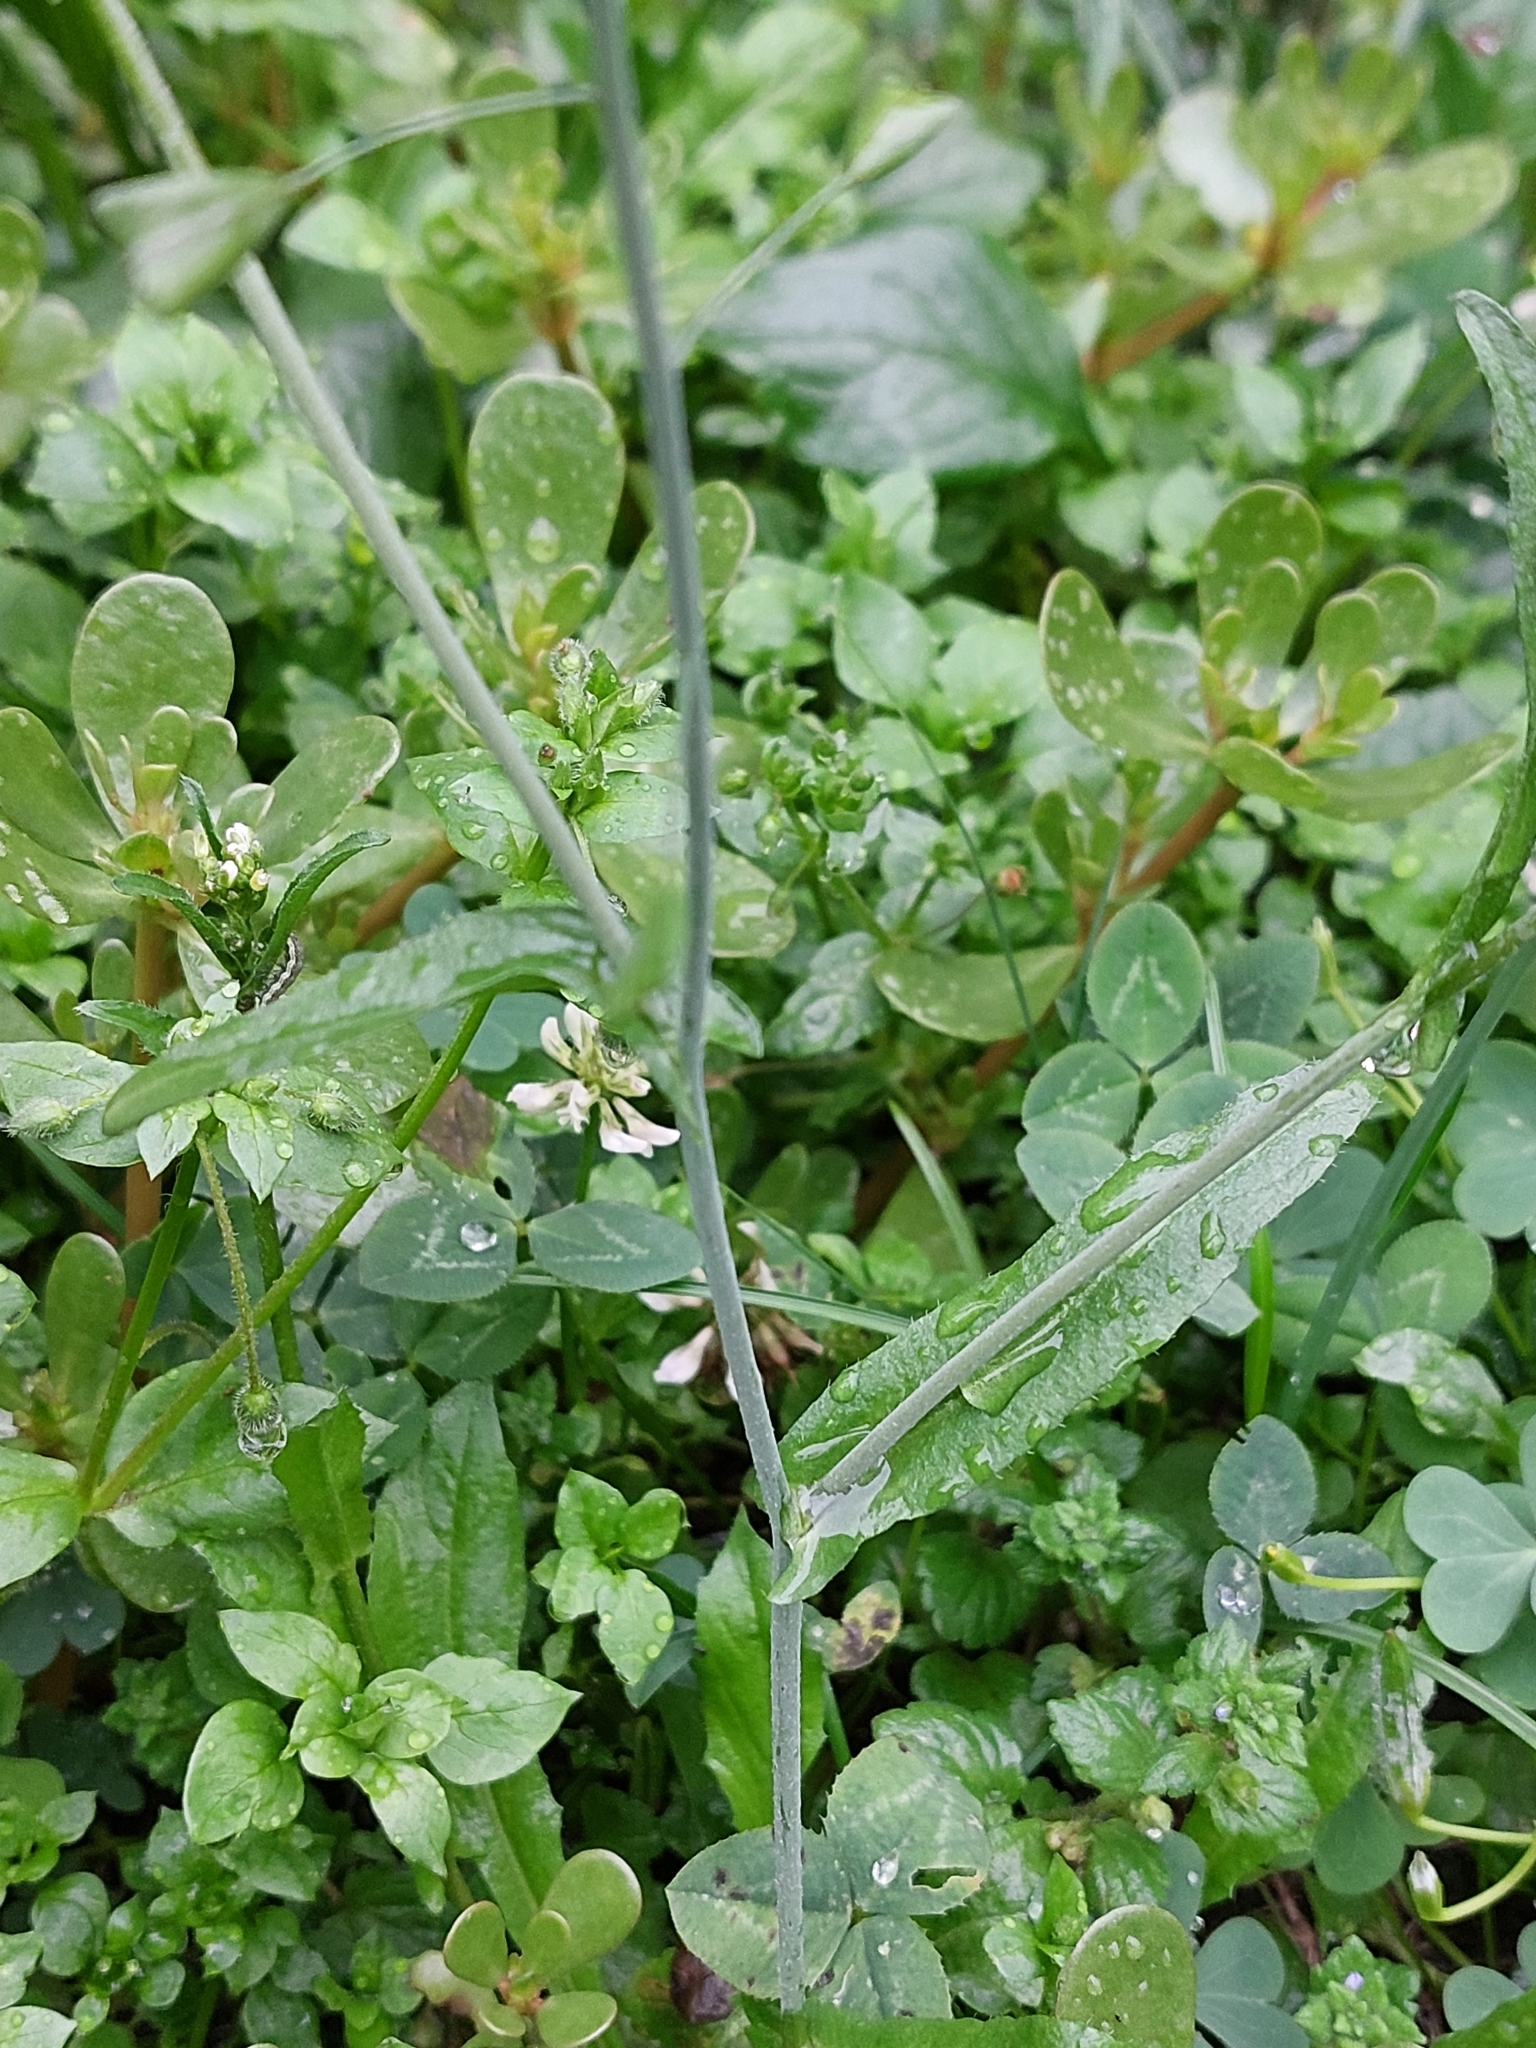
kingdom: Plantae
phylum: Tracheophyta
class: Magnoliopsida
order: Brassicales
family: Brassicaceae
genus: Capsella
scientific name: Capsella bursa-pastoris
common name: Shepherd's purse
